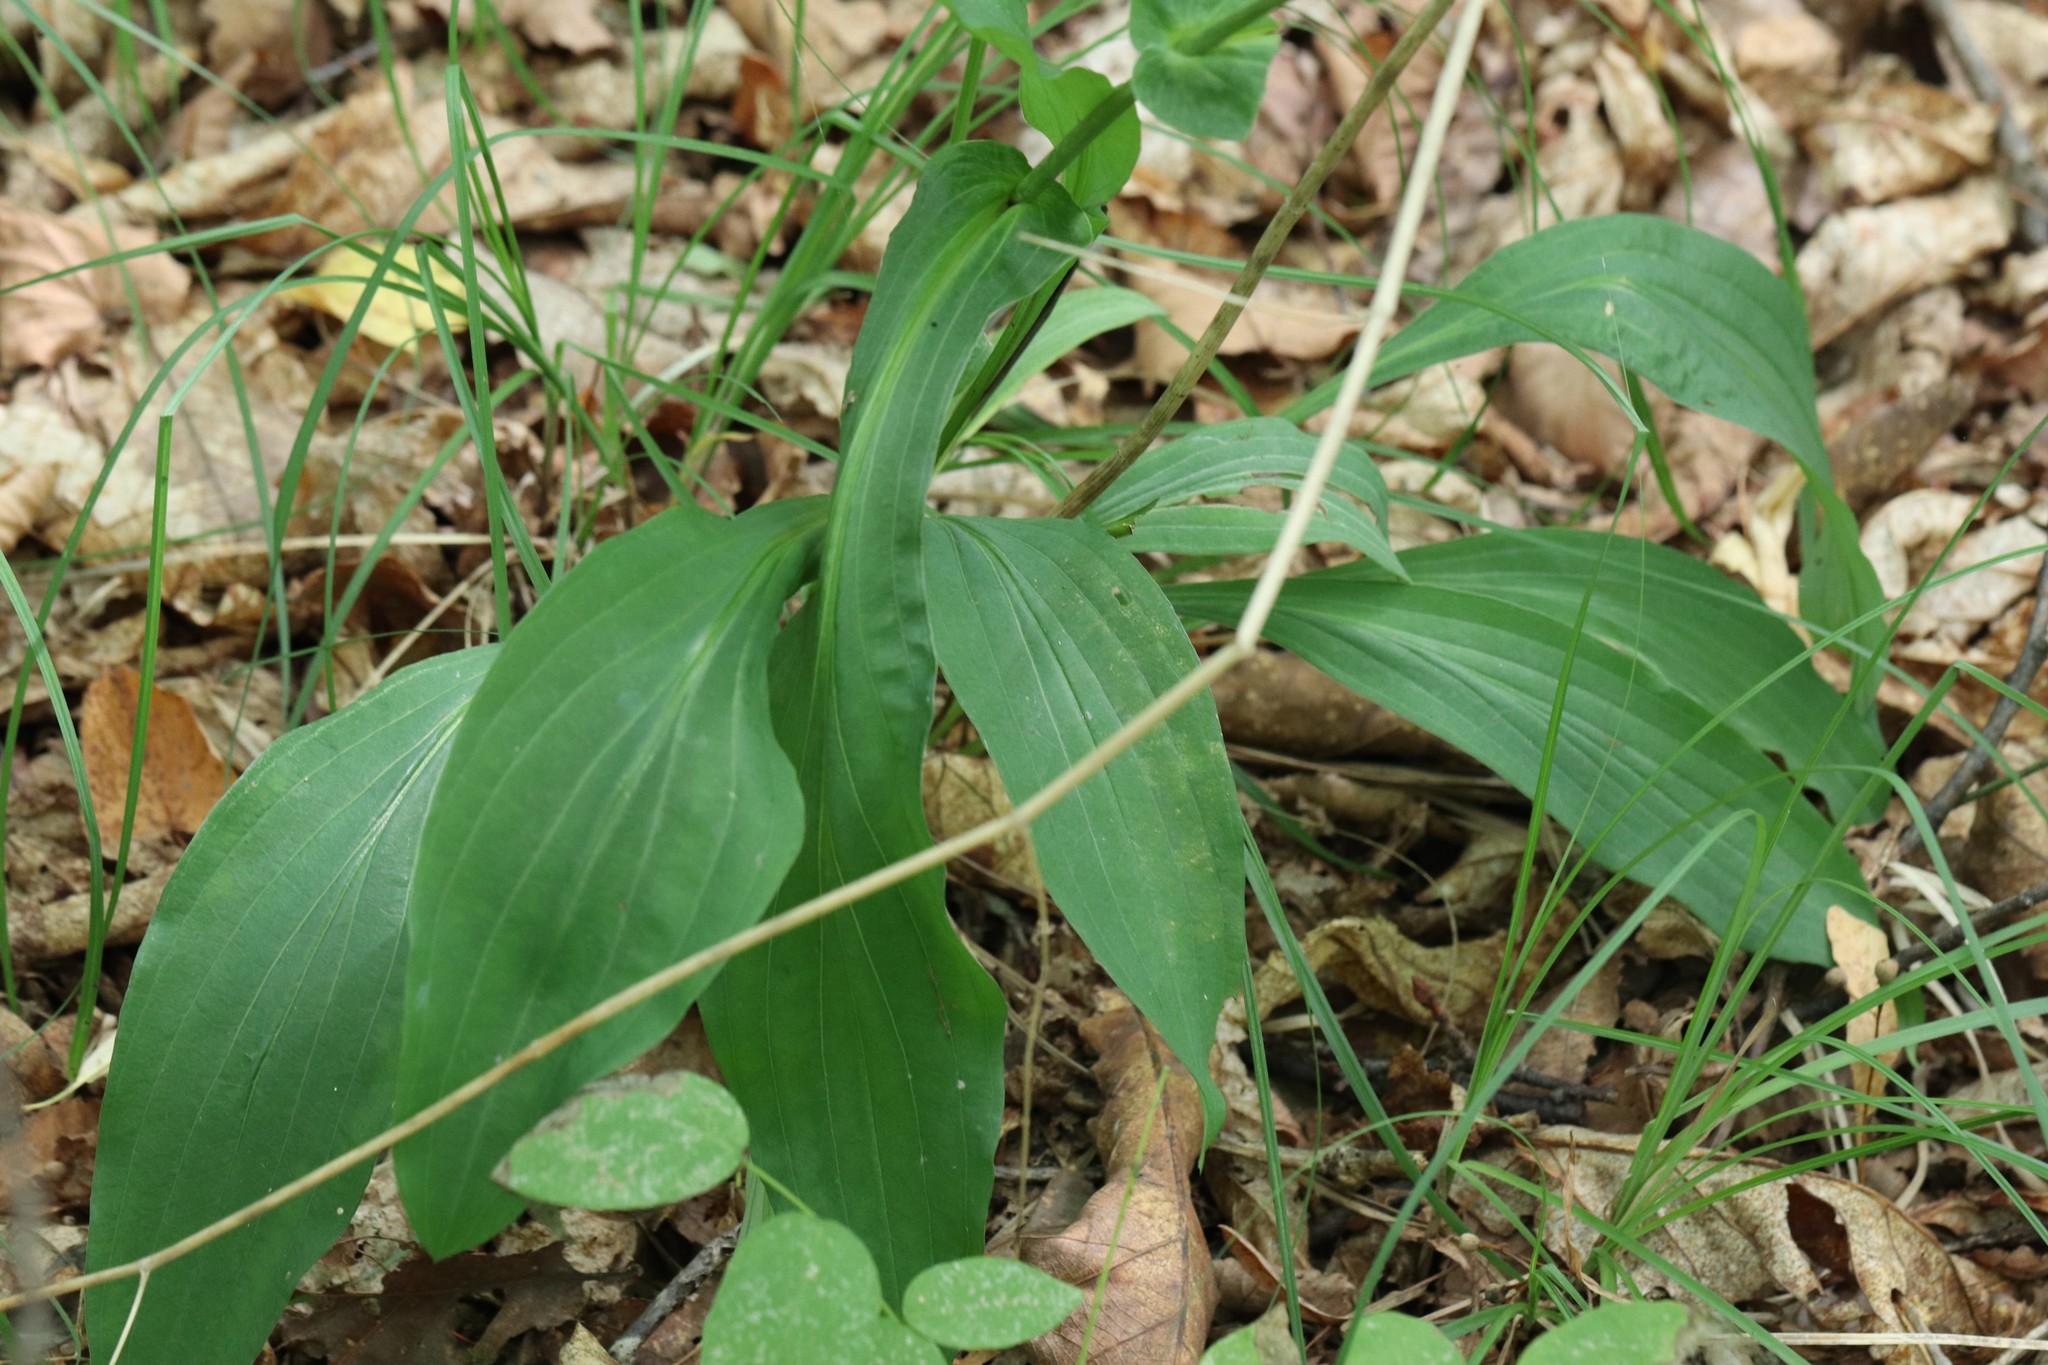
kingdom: Plantae
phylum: Tracheophyta
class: Magnoliopsida
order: Apiales
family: Apiaceae
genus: Bupleurum
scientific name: Bupleurum longiradiatum
